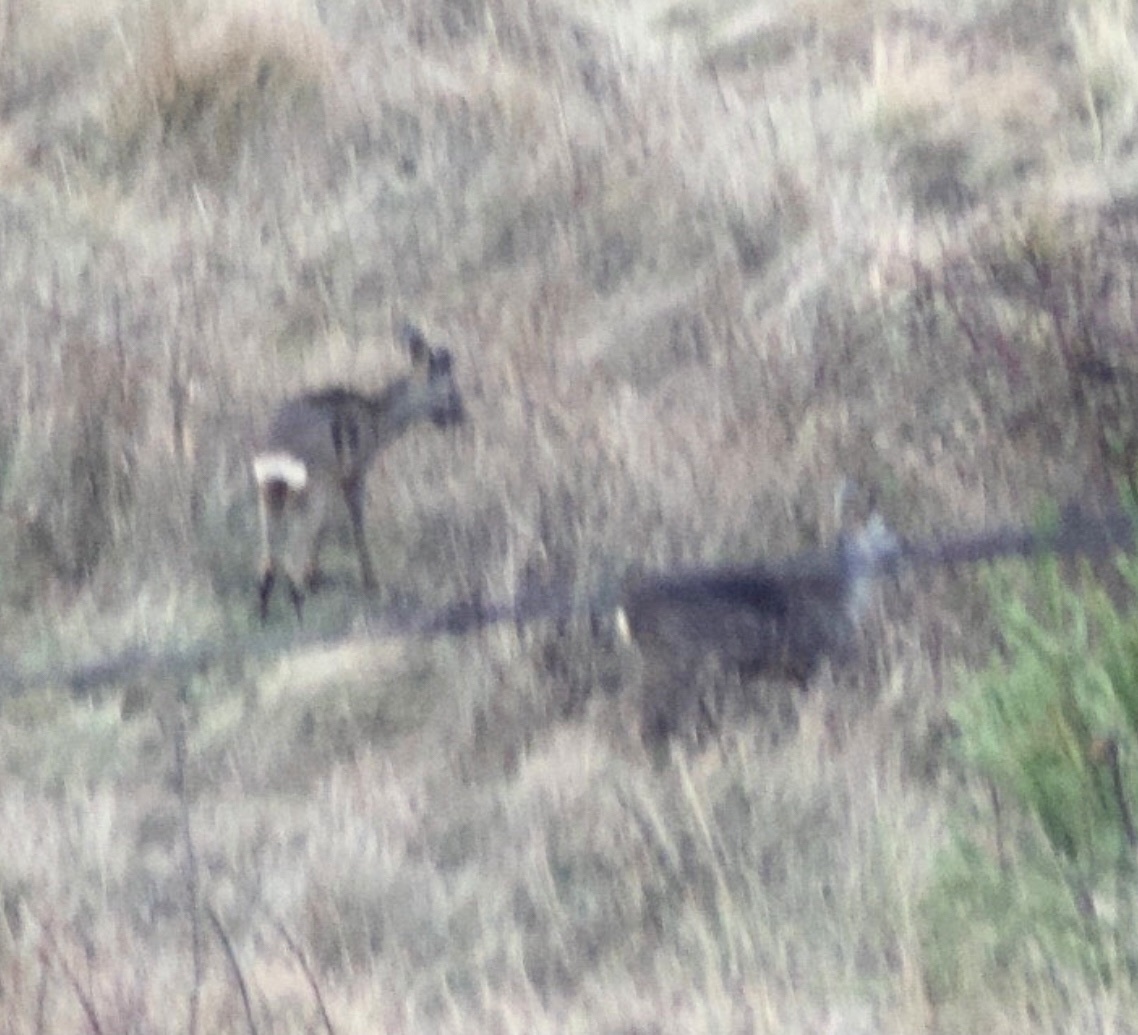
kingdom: Animalia
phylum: Chordata
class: Mammalia
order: Artiodactyla
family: Cervidae
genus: Capreolus
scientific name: Capreolus capreolus
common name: Western roe deer
